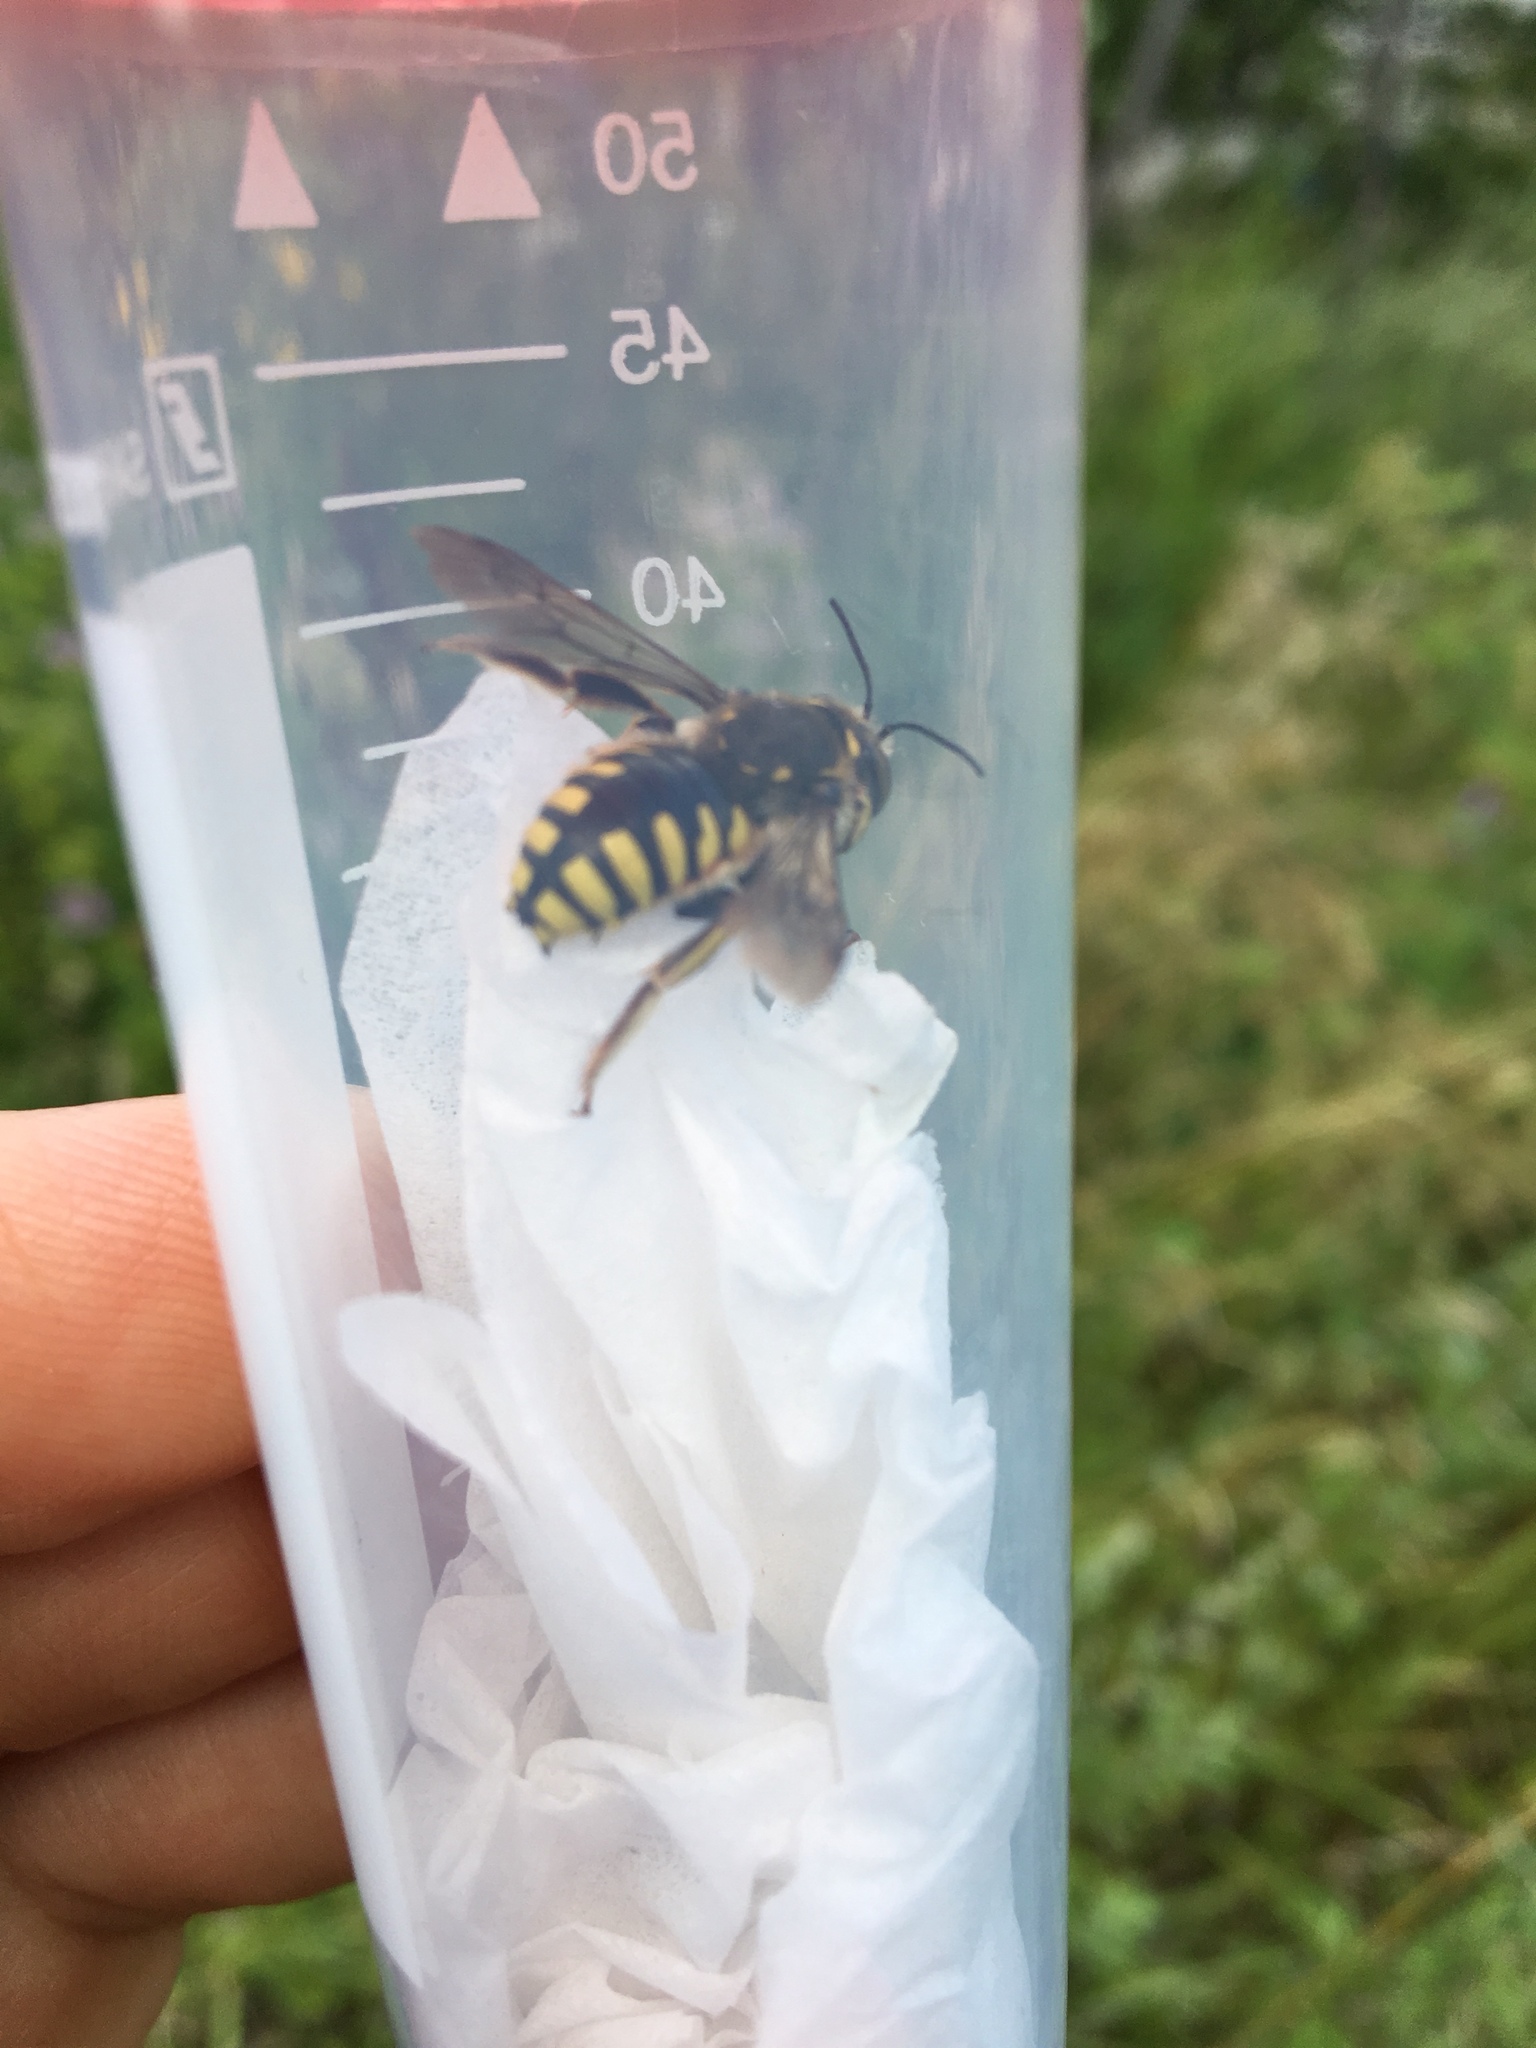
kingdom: Animalia
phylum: Arthropoda
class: Insecta
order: Hymenoptera
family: Megachilidae
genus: Anthidium
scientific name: Anthidium florentinum
